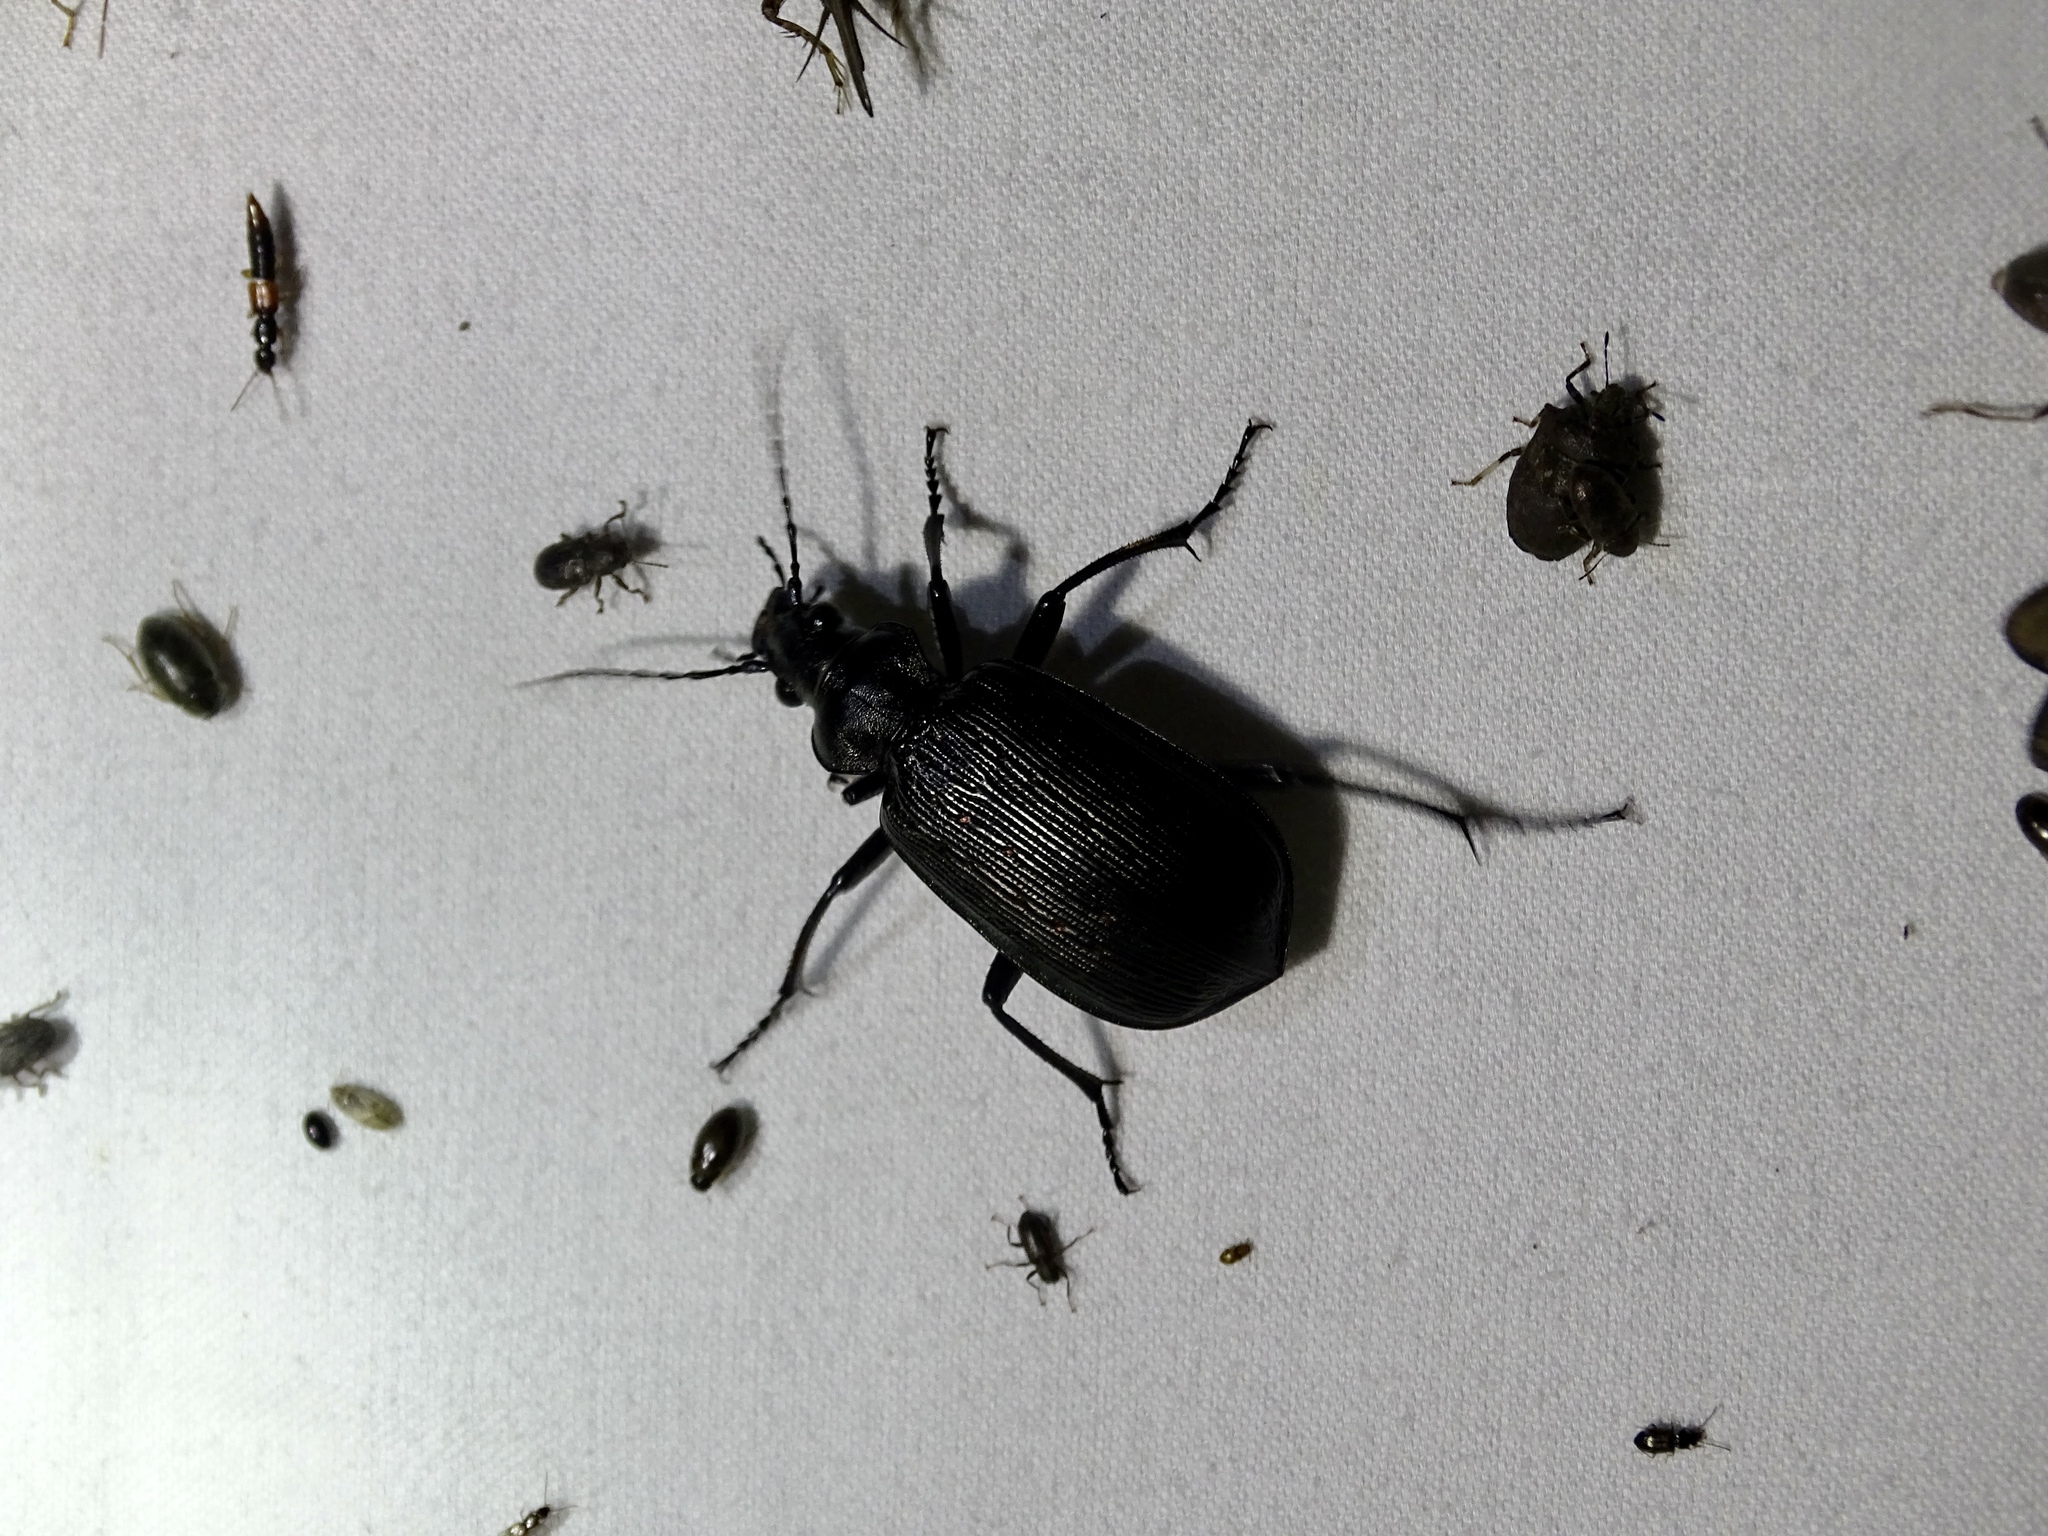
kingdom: Animalia
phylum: Arthropoda
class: Insecta
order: Coleoptera
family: Carabidae
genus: Calosoma
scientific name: Calosoma sayi
